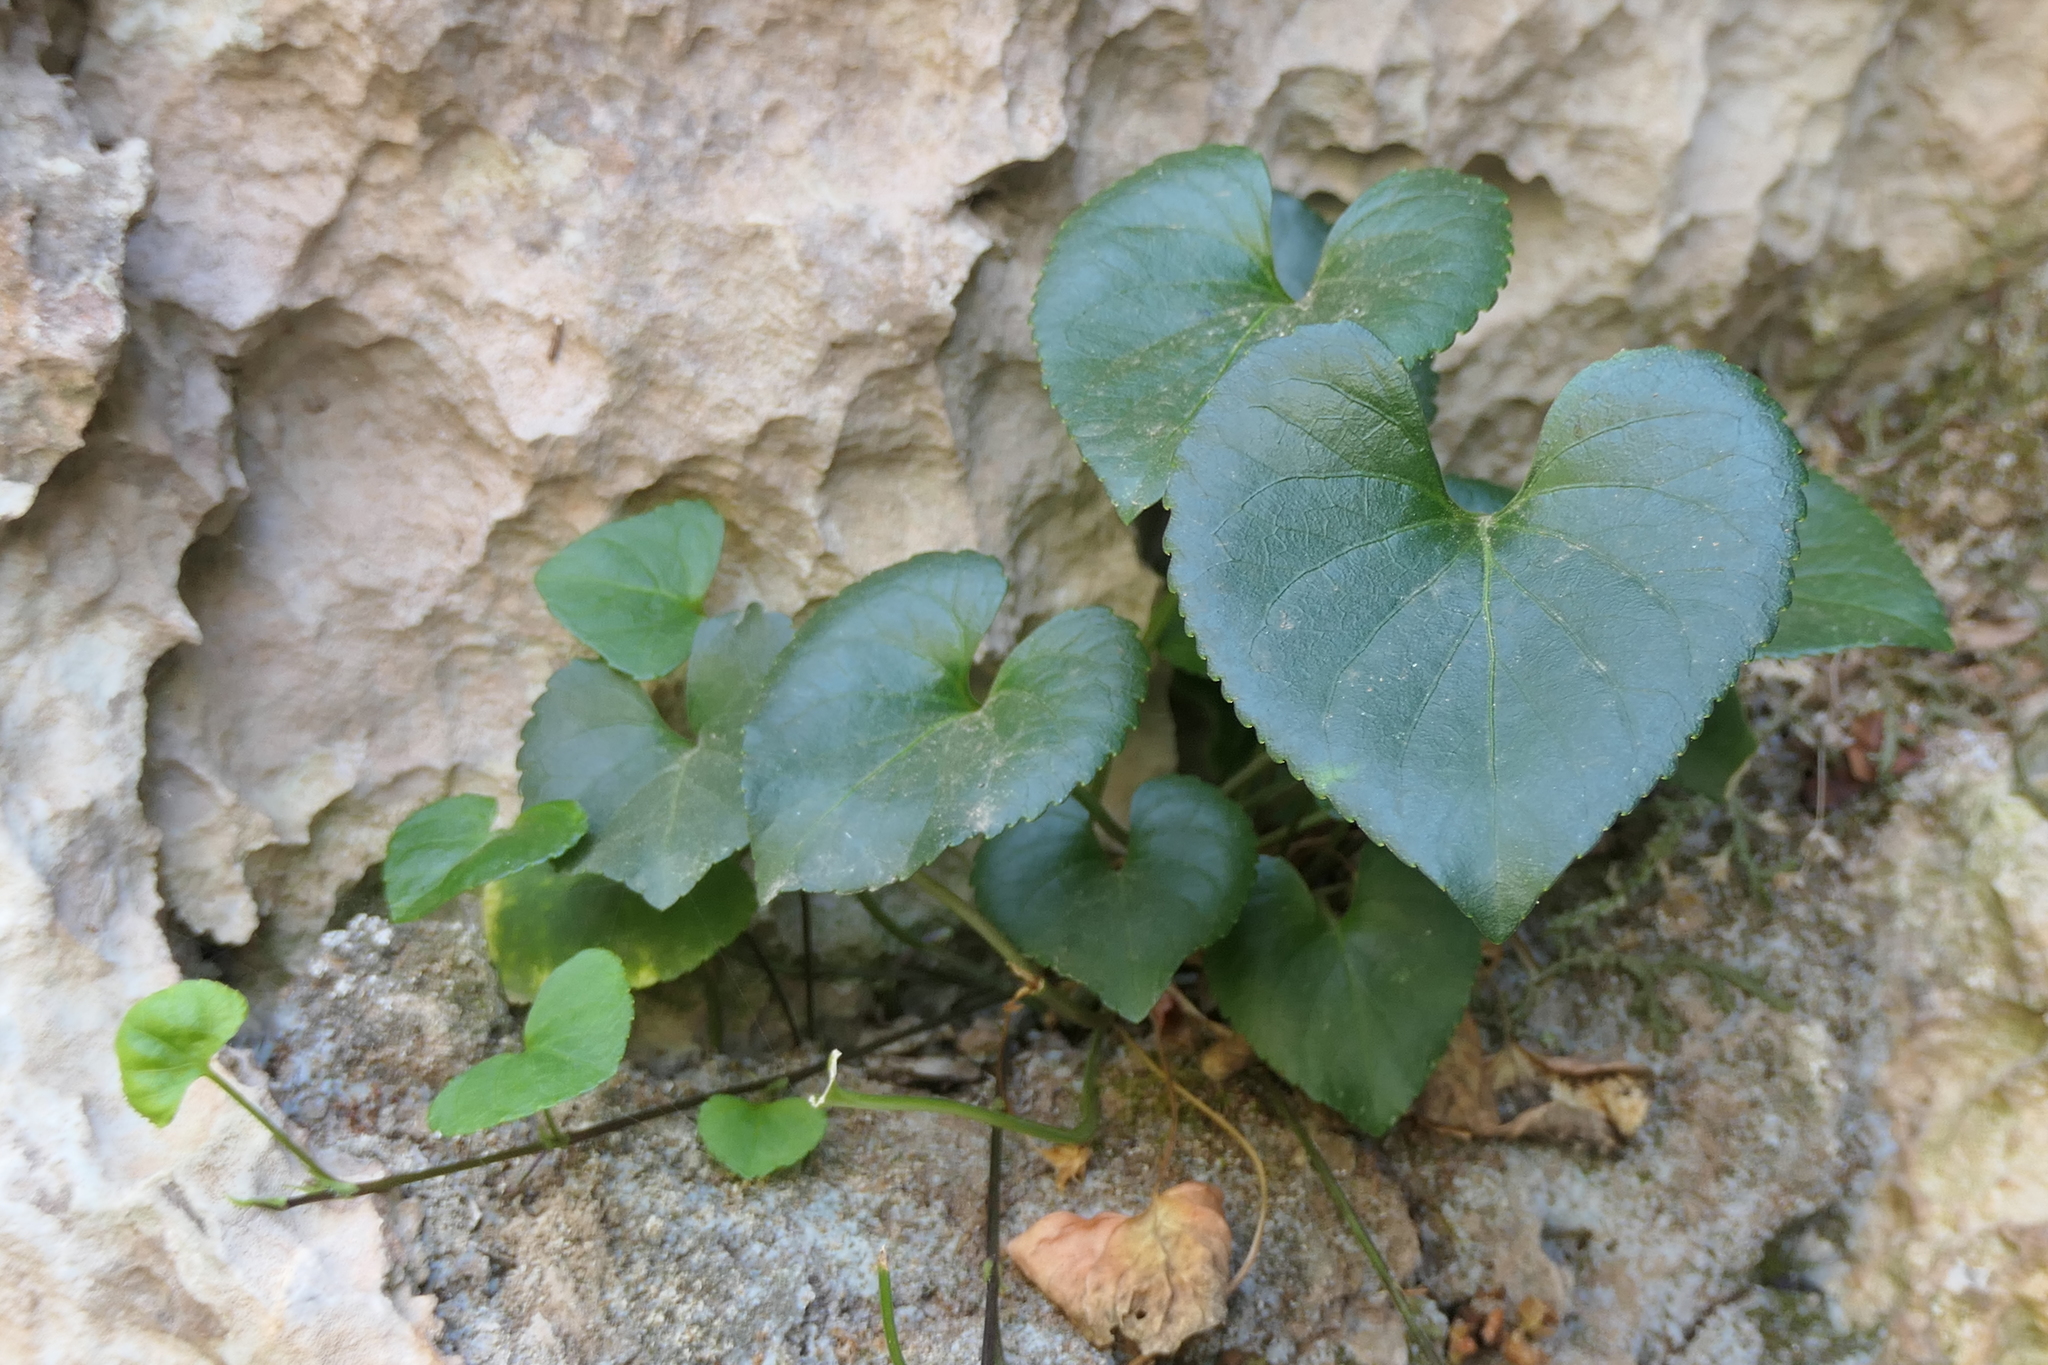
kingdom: Plantae
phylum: Tracheophyta
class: Magnoliopsida
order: Malpighiales
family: Violaceae
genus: Viola
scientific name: Viola jaubertiana
